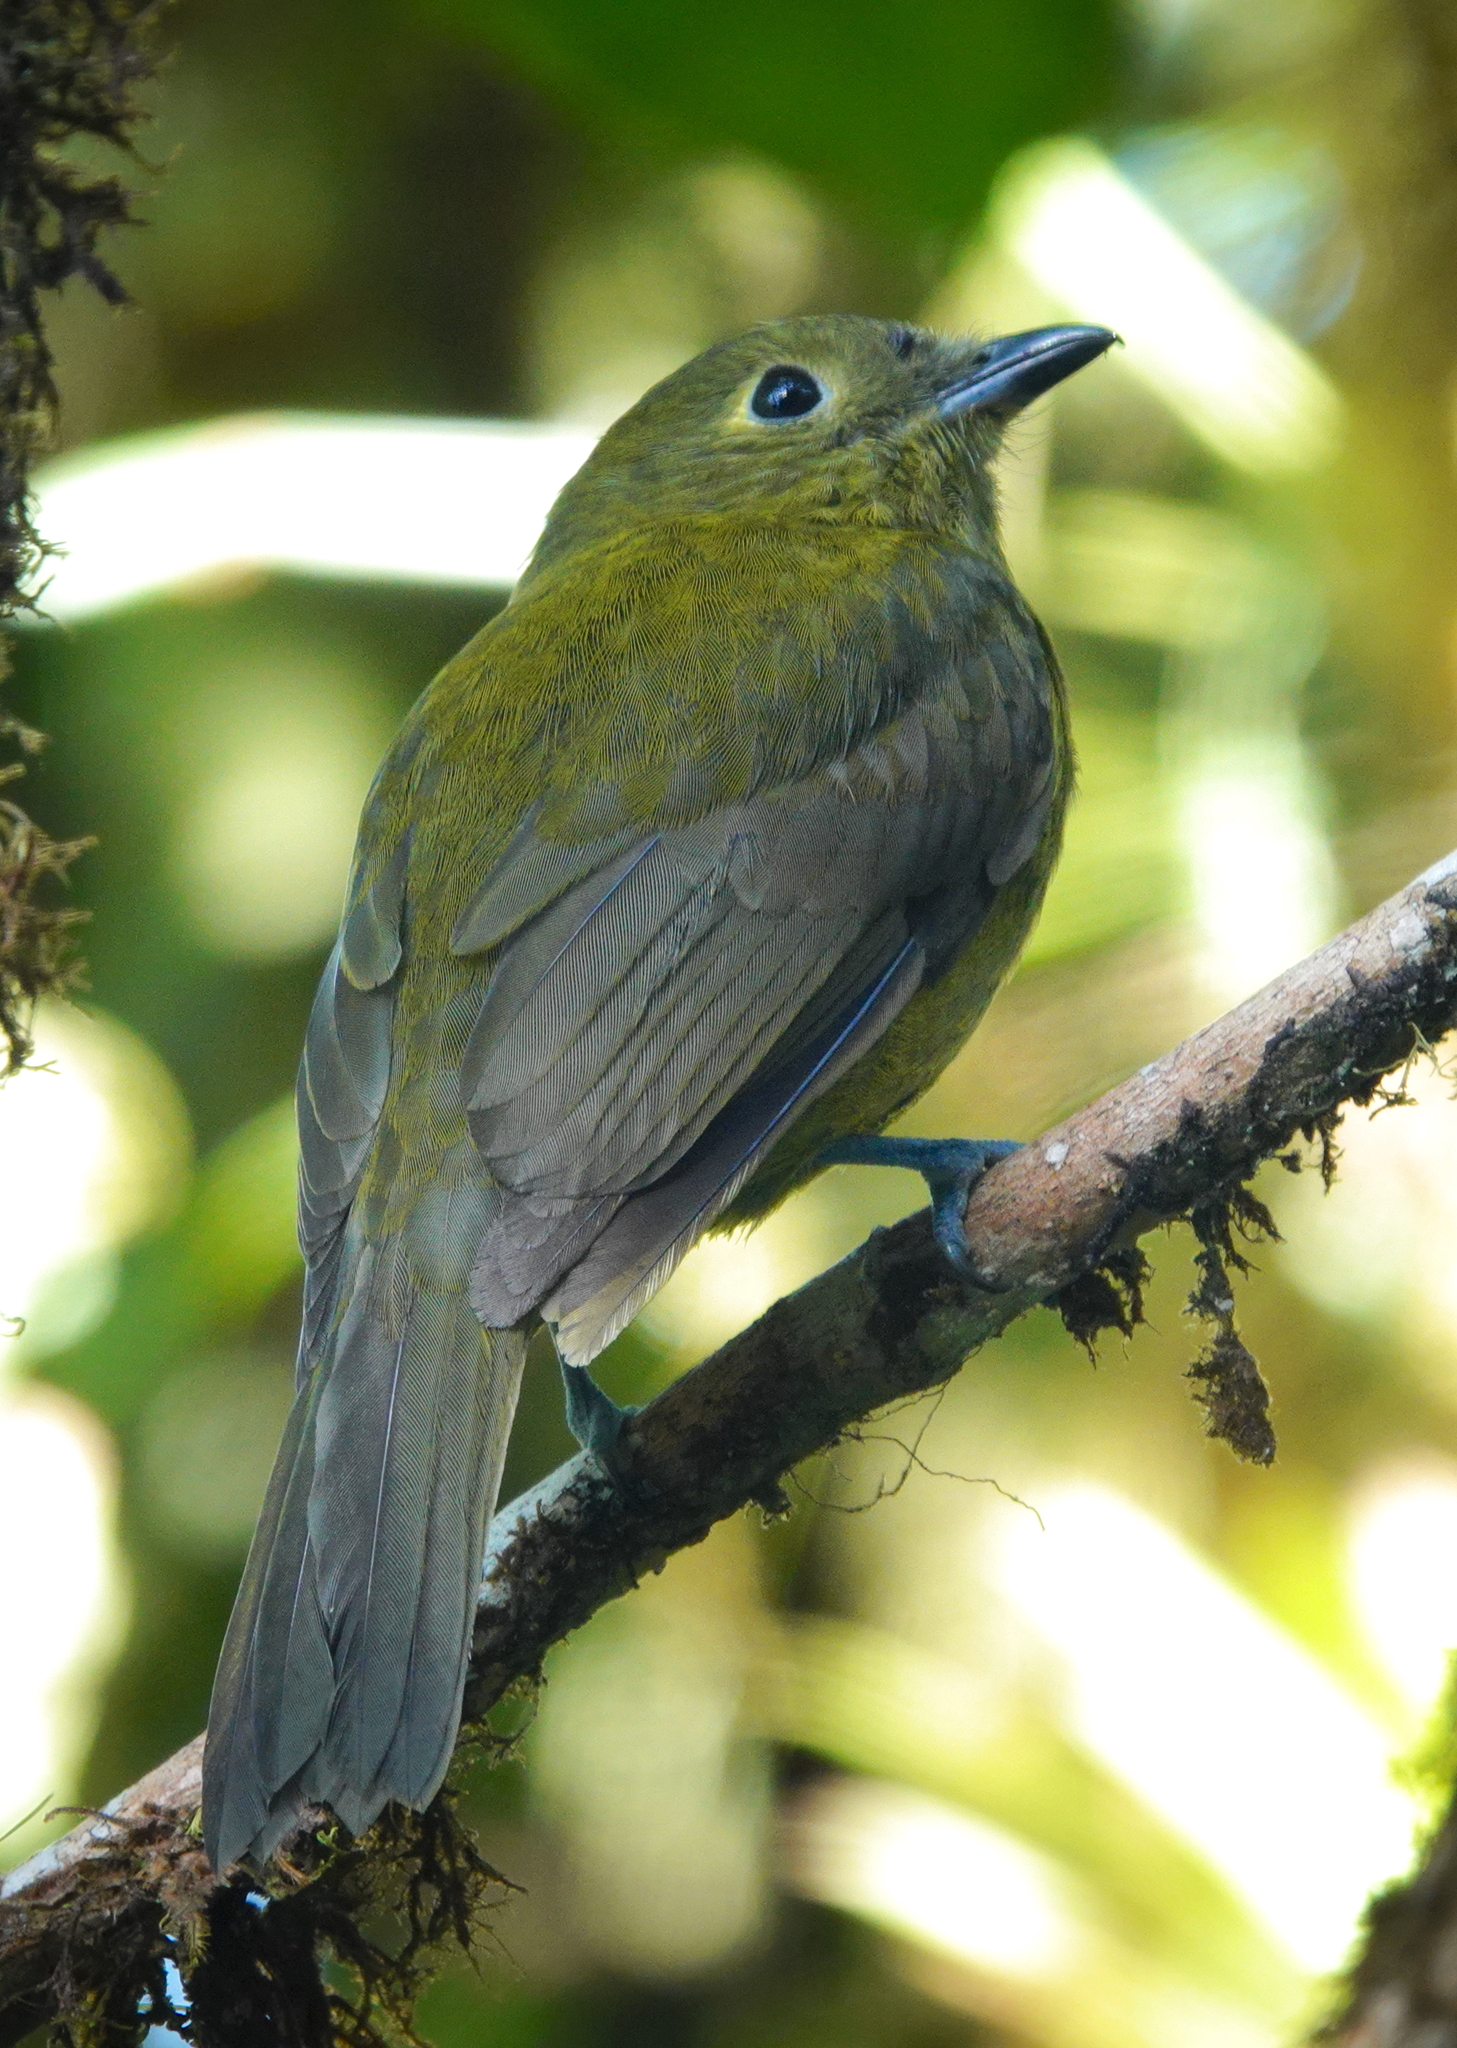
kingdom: Animalia
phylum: Chordata
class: Aves
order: Passeriformes
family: Cotingidae
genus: Snowornis
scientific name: Snowornis cryptolophus
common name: Olivaceous piha
